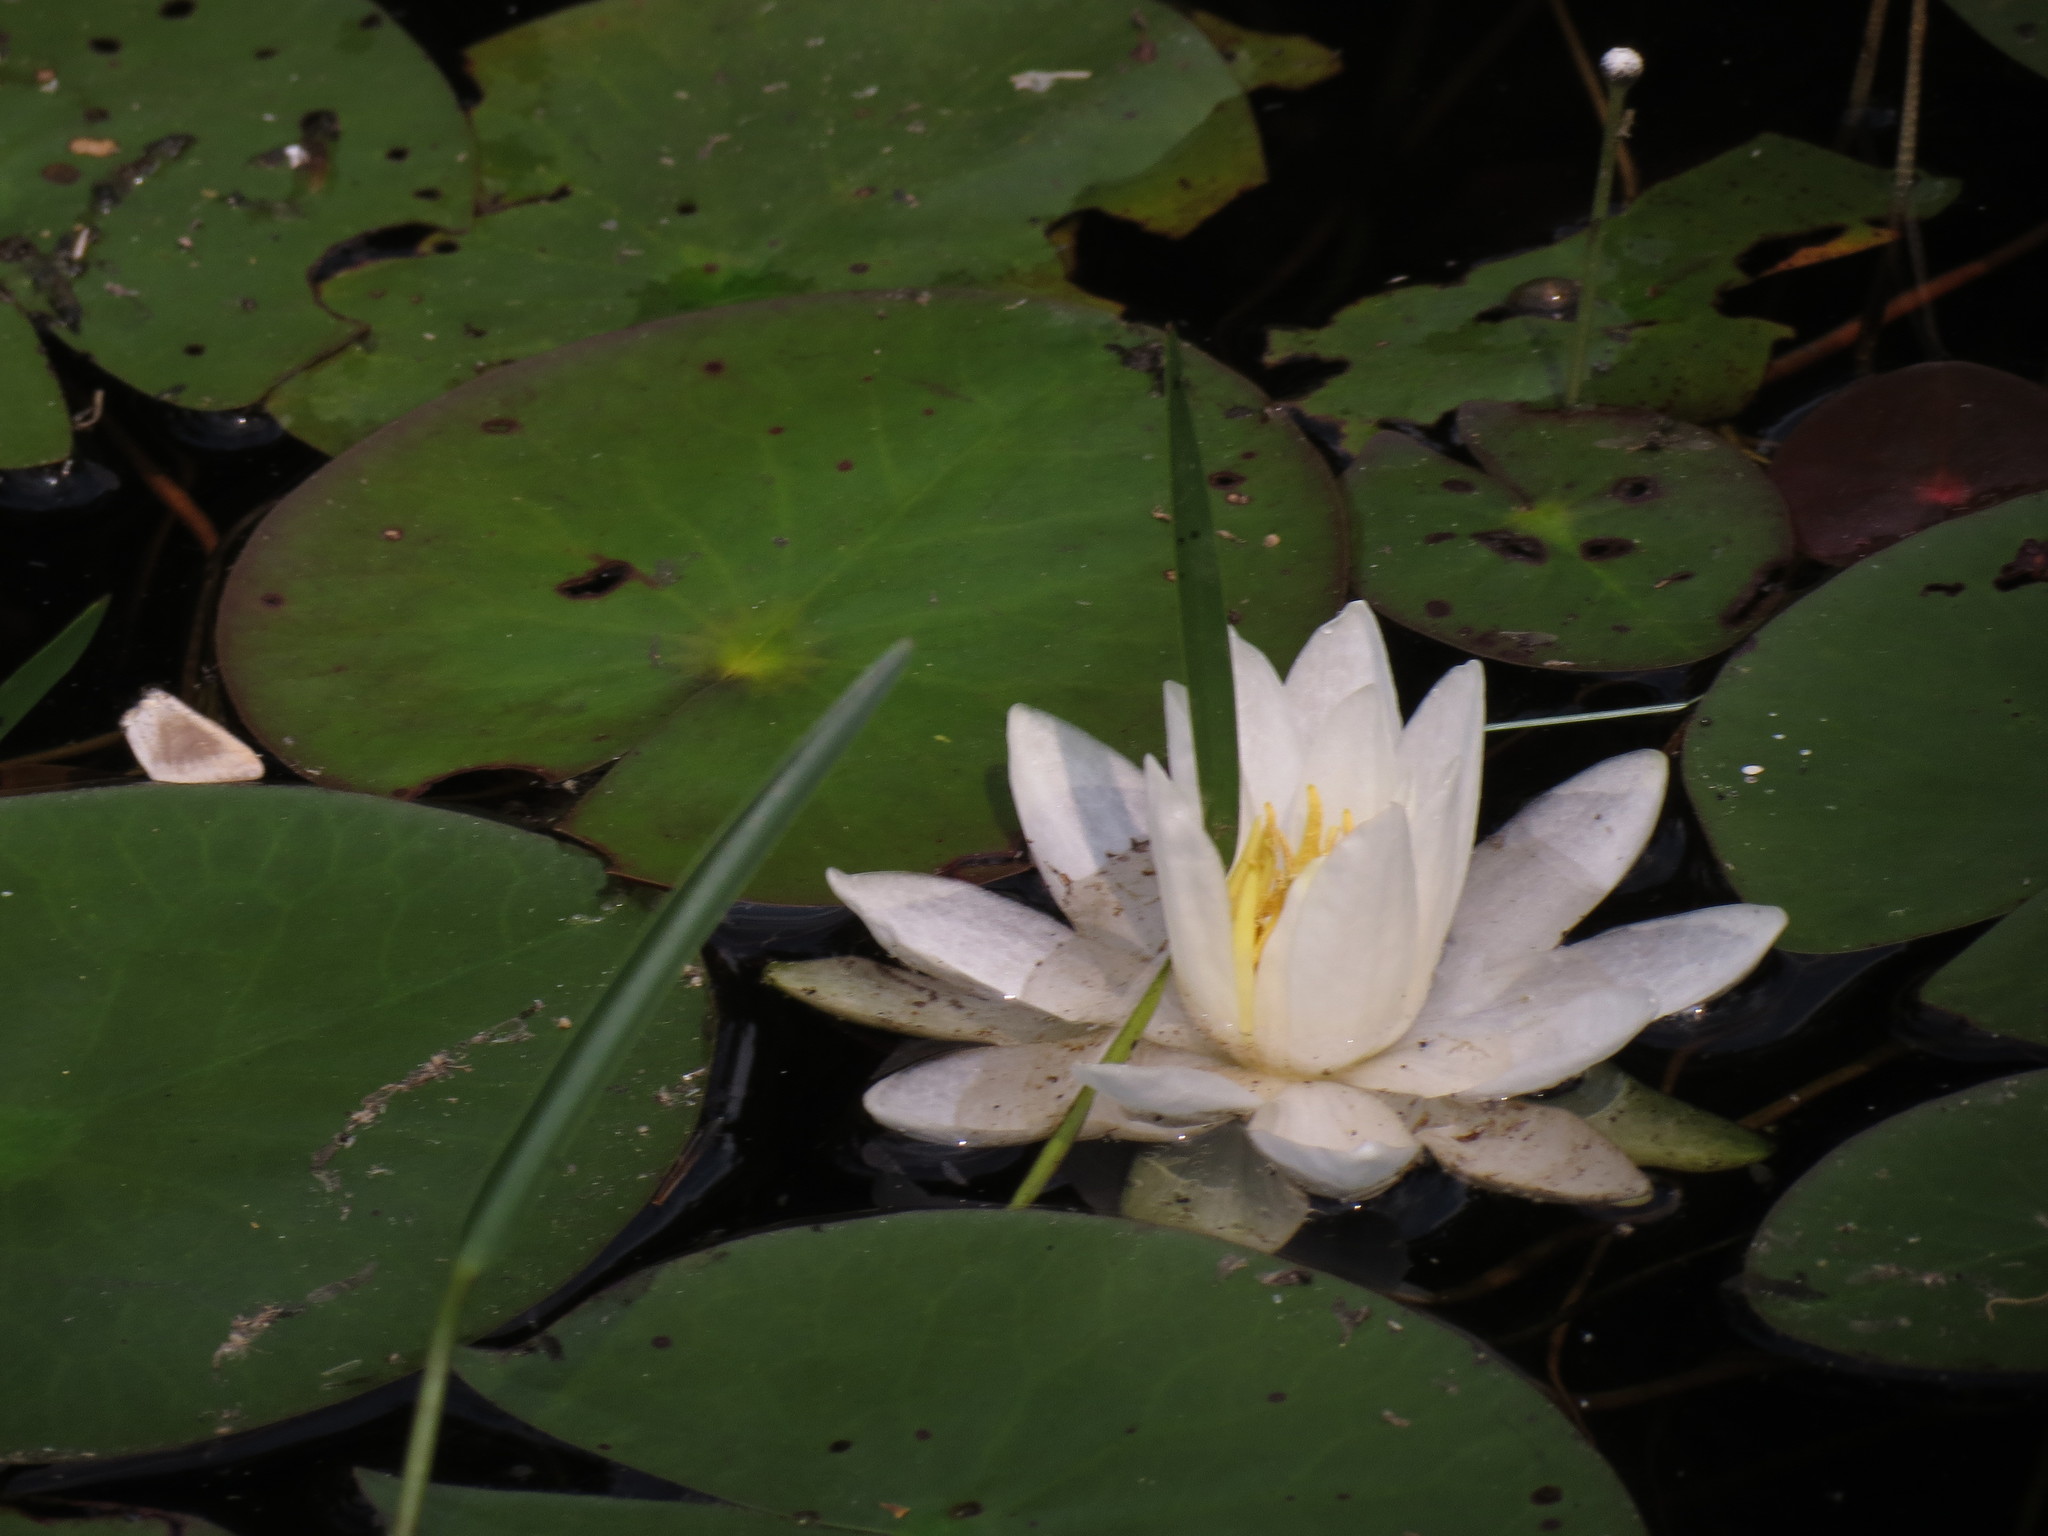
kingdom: Plantae
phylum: Tracheophyta
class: Magnoliopsida
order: Nymphaeales
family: Nymphaeaceae
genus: Nymphaea
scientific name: Nymphaea odorata
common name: Fragrant water-lily
